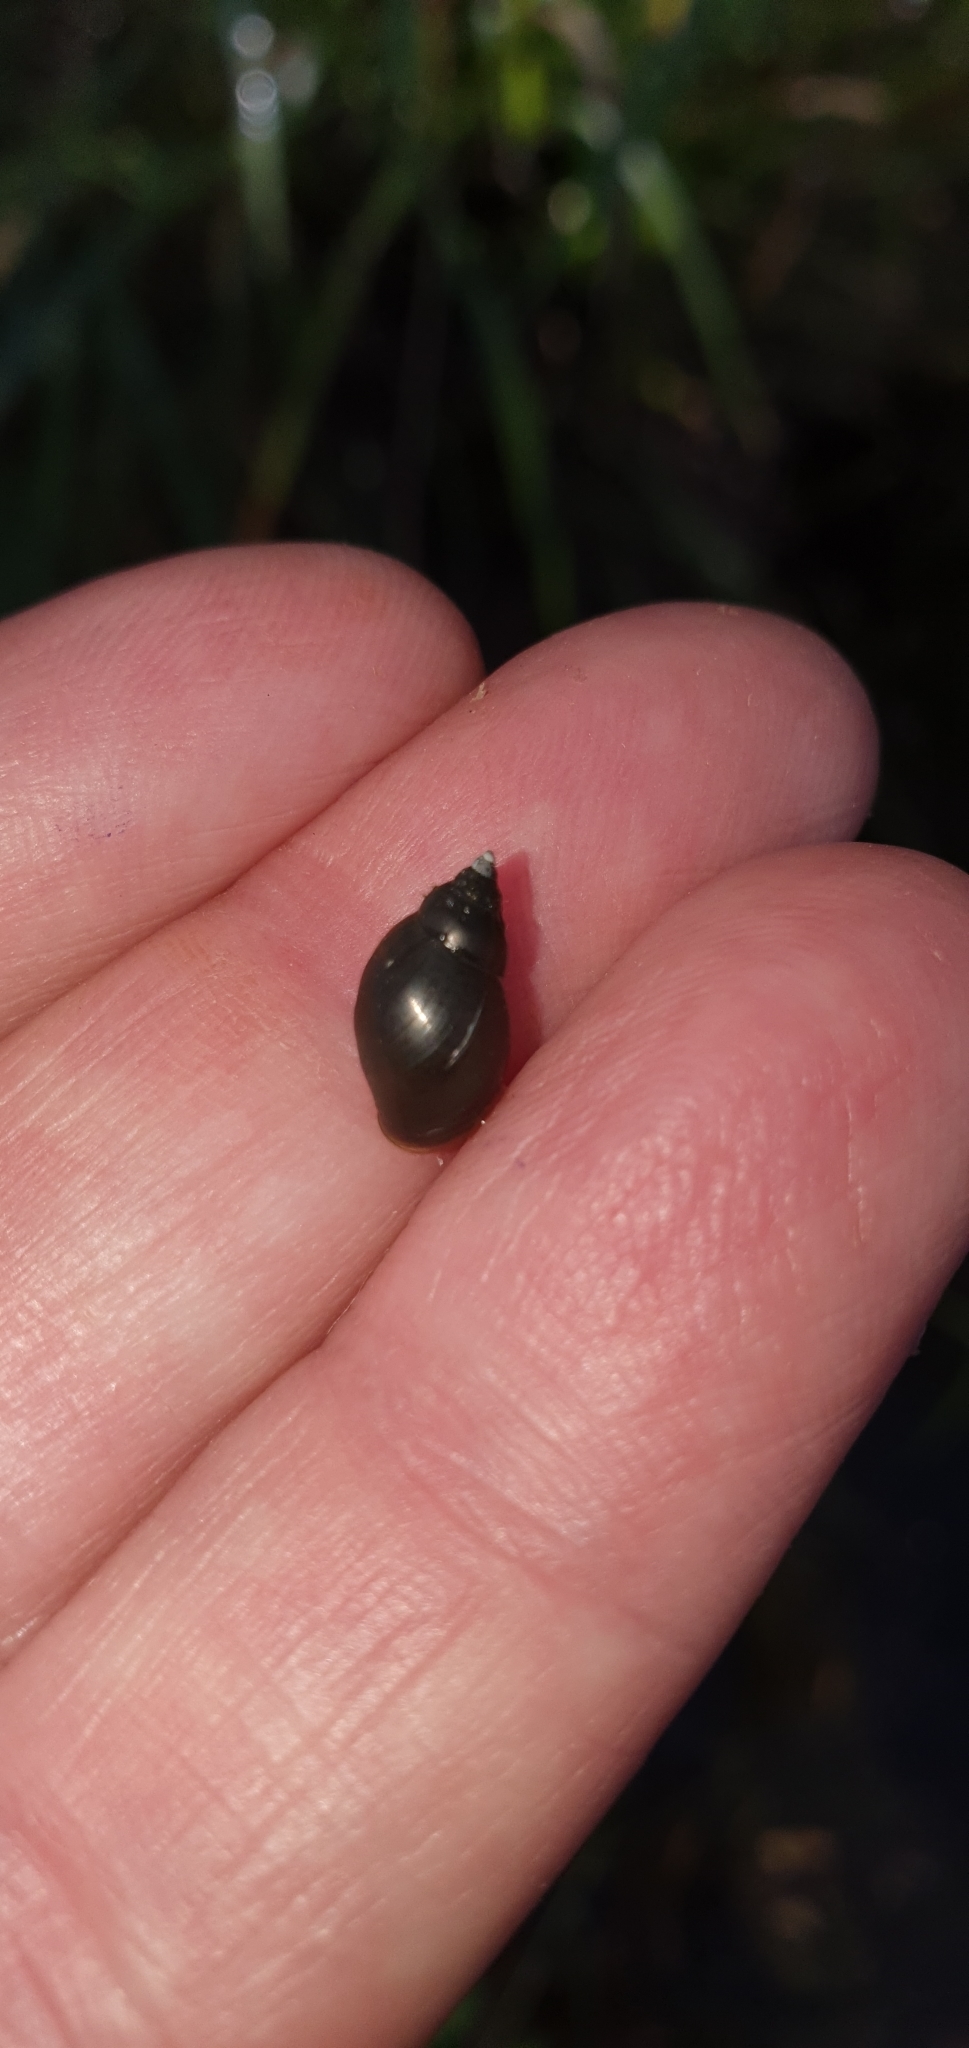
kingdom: Animalia
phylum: Mollusca
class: Gastropoda
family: Planorbidae
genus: Glyptophysa
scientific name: Glyptophysa novaehollandica
